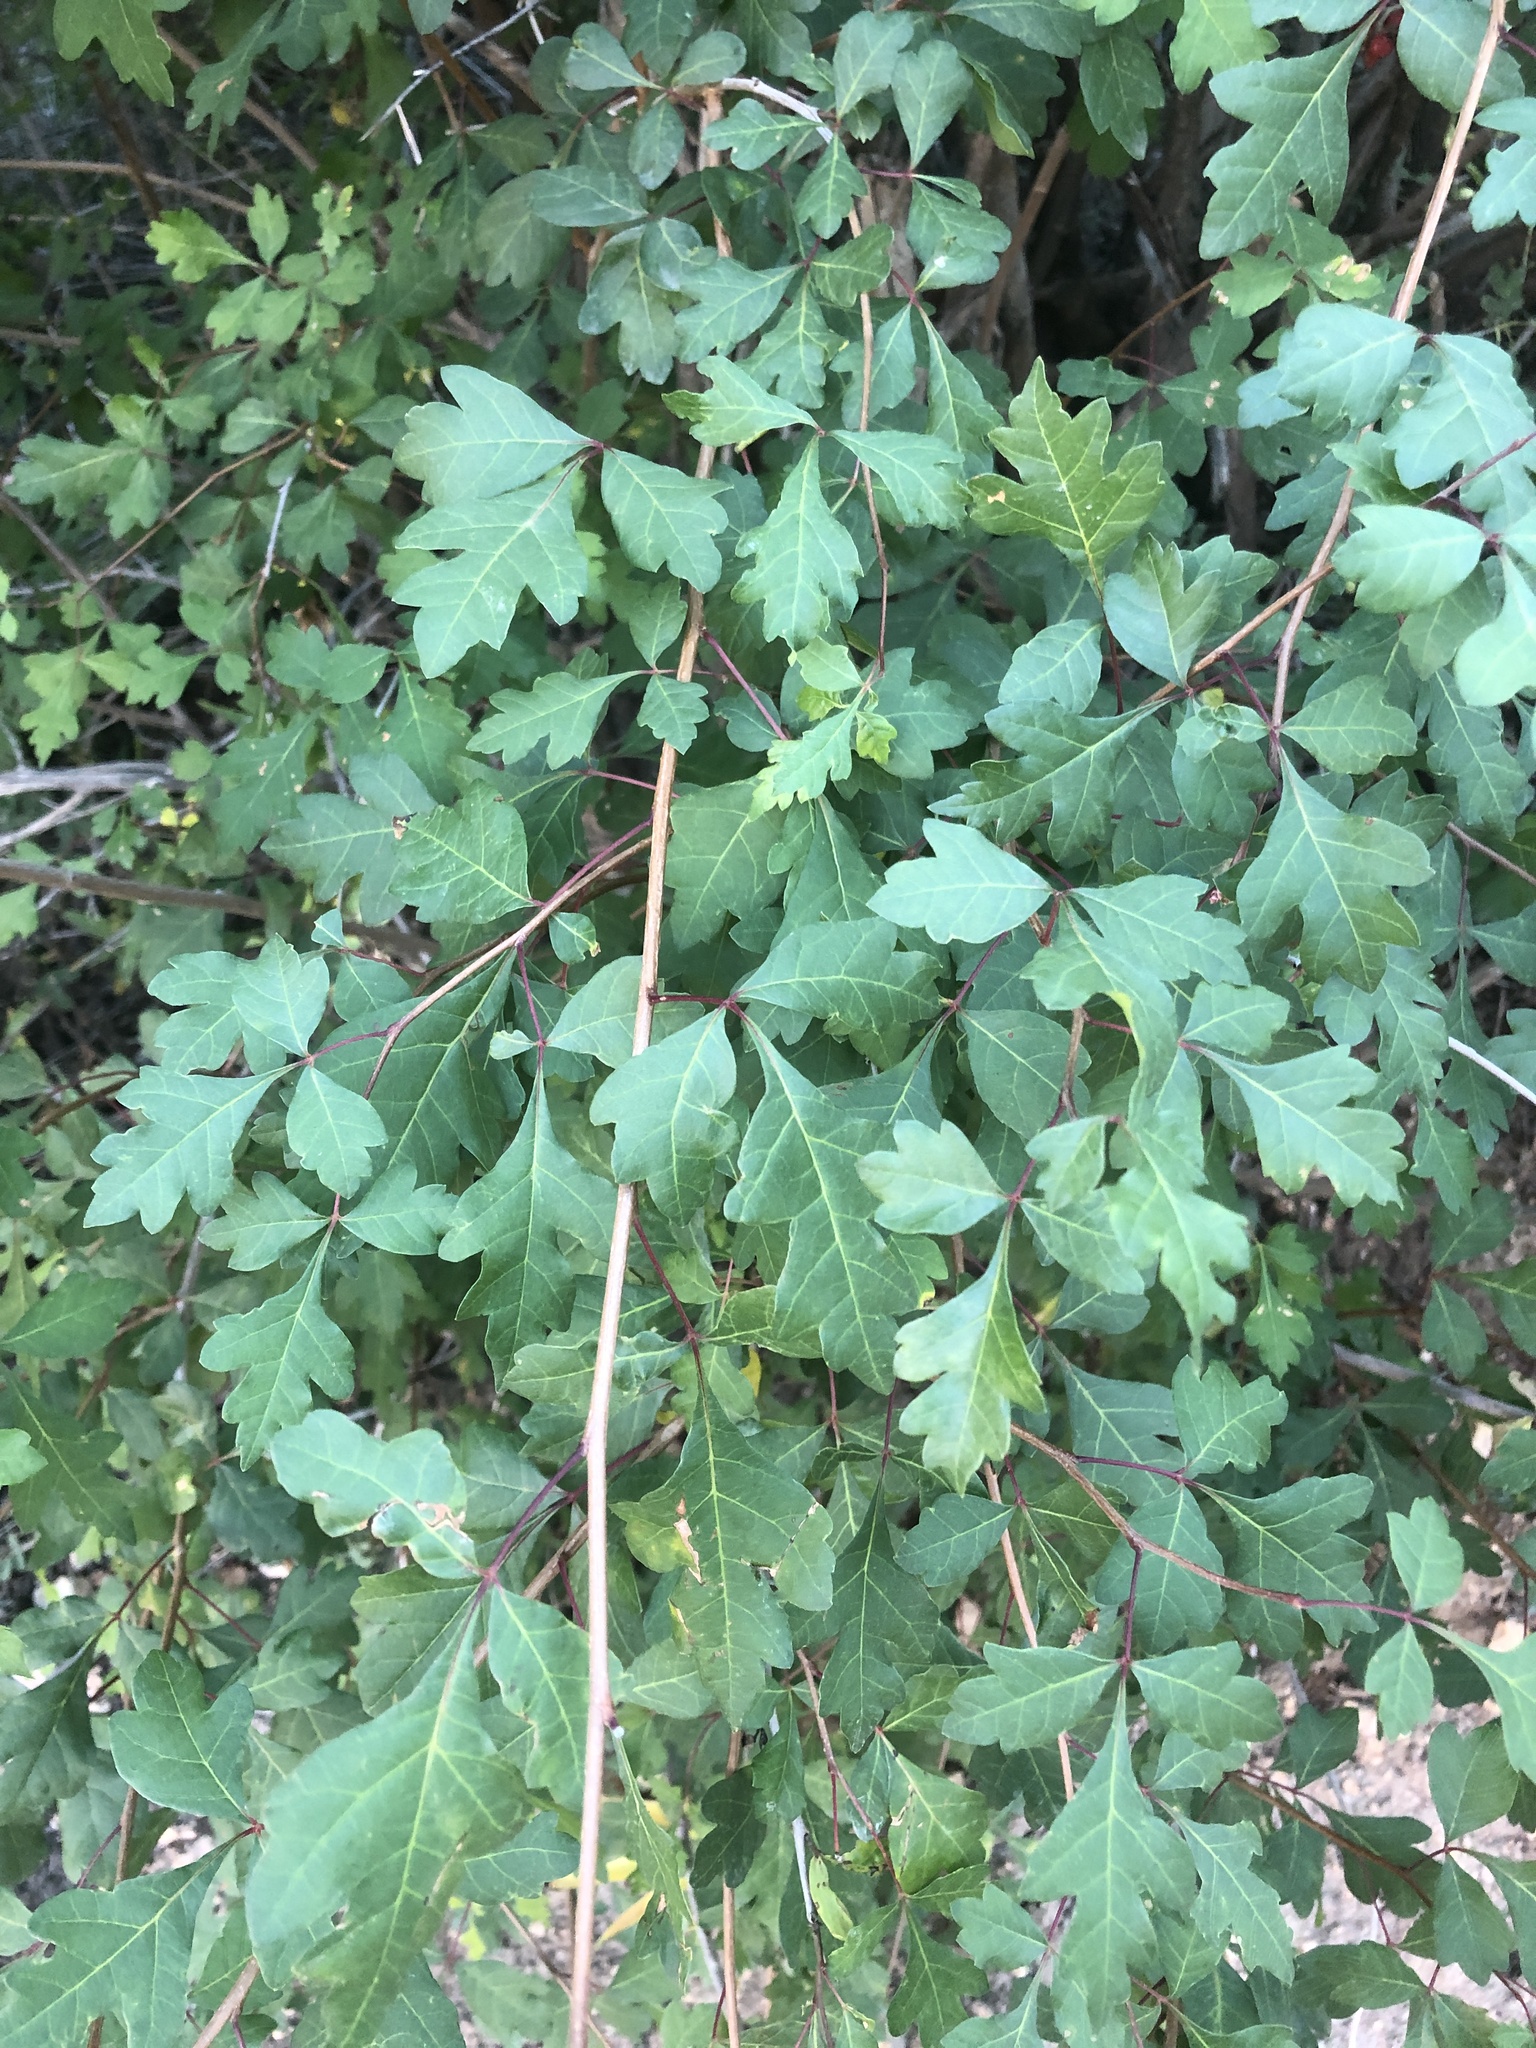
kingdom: Plantae
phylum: Tracheophyta
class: Magnoliopsida
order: Sapindales
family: Anacardiaceae
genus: Rhus
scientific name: Rhus trilobata
